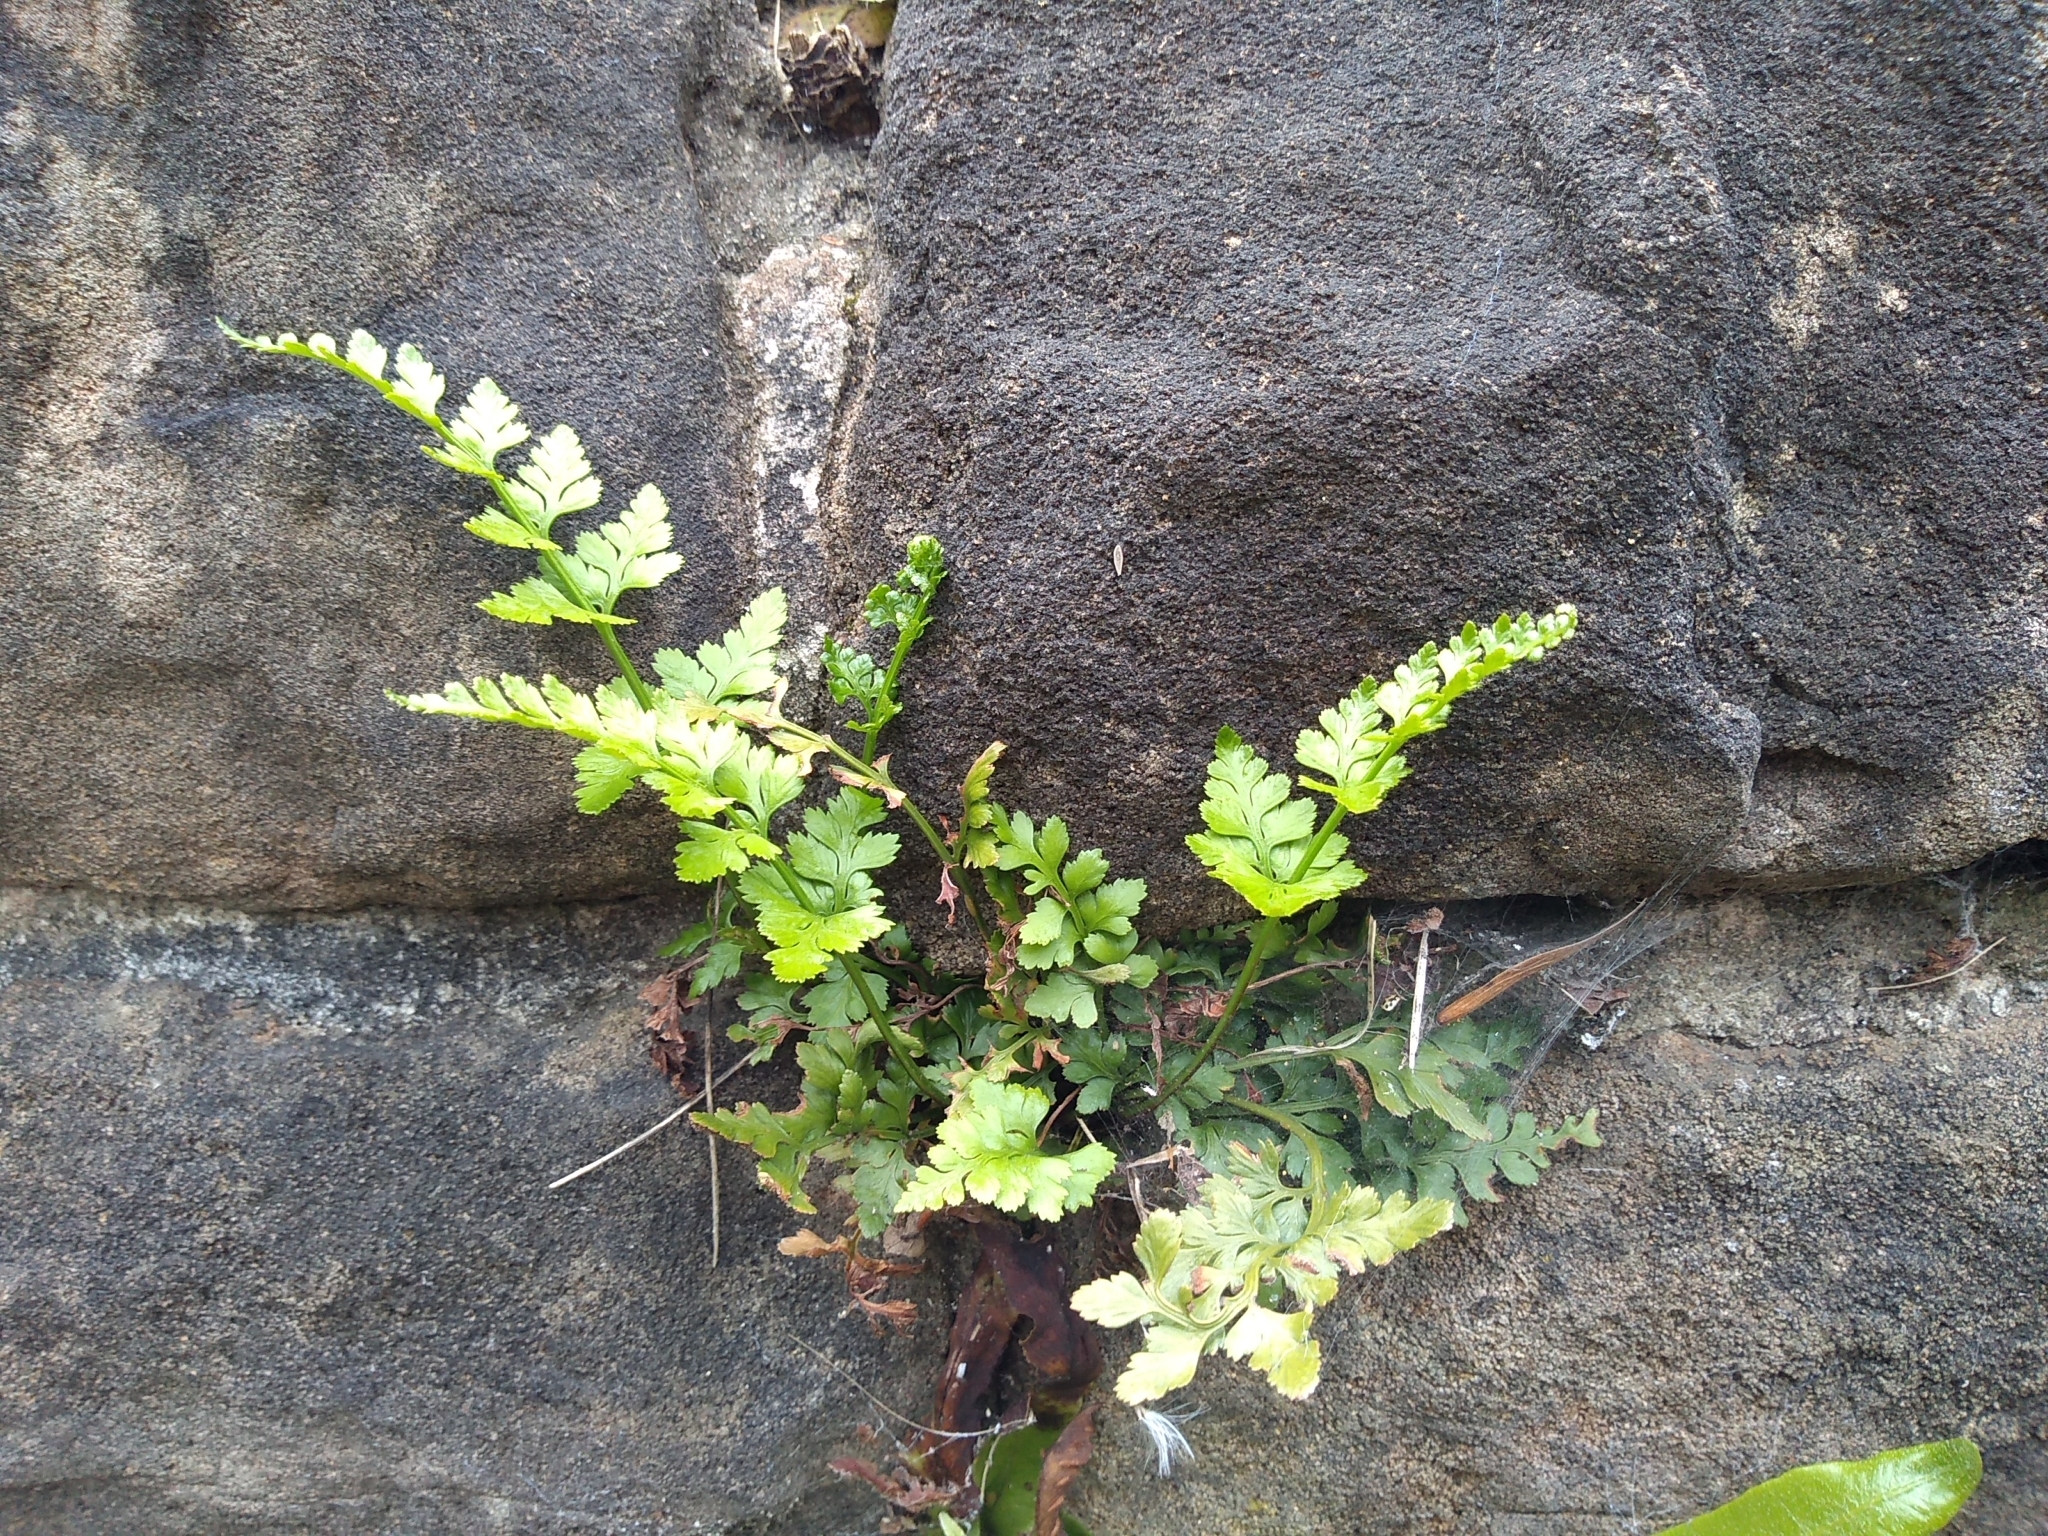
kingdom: Plantae
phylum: Tracheophyta
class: Polypodiopsida
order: Polypodiales
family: Aspleniaceae
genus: Asplenium
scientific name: Asplenium adiantum-nigrum
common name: Black spleenwort
